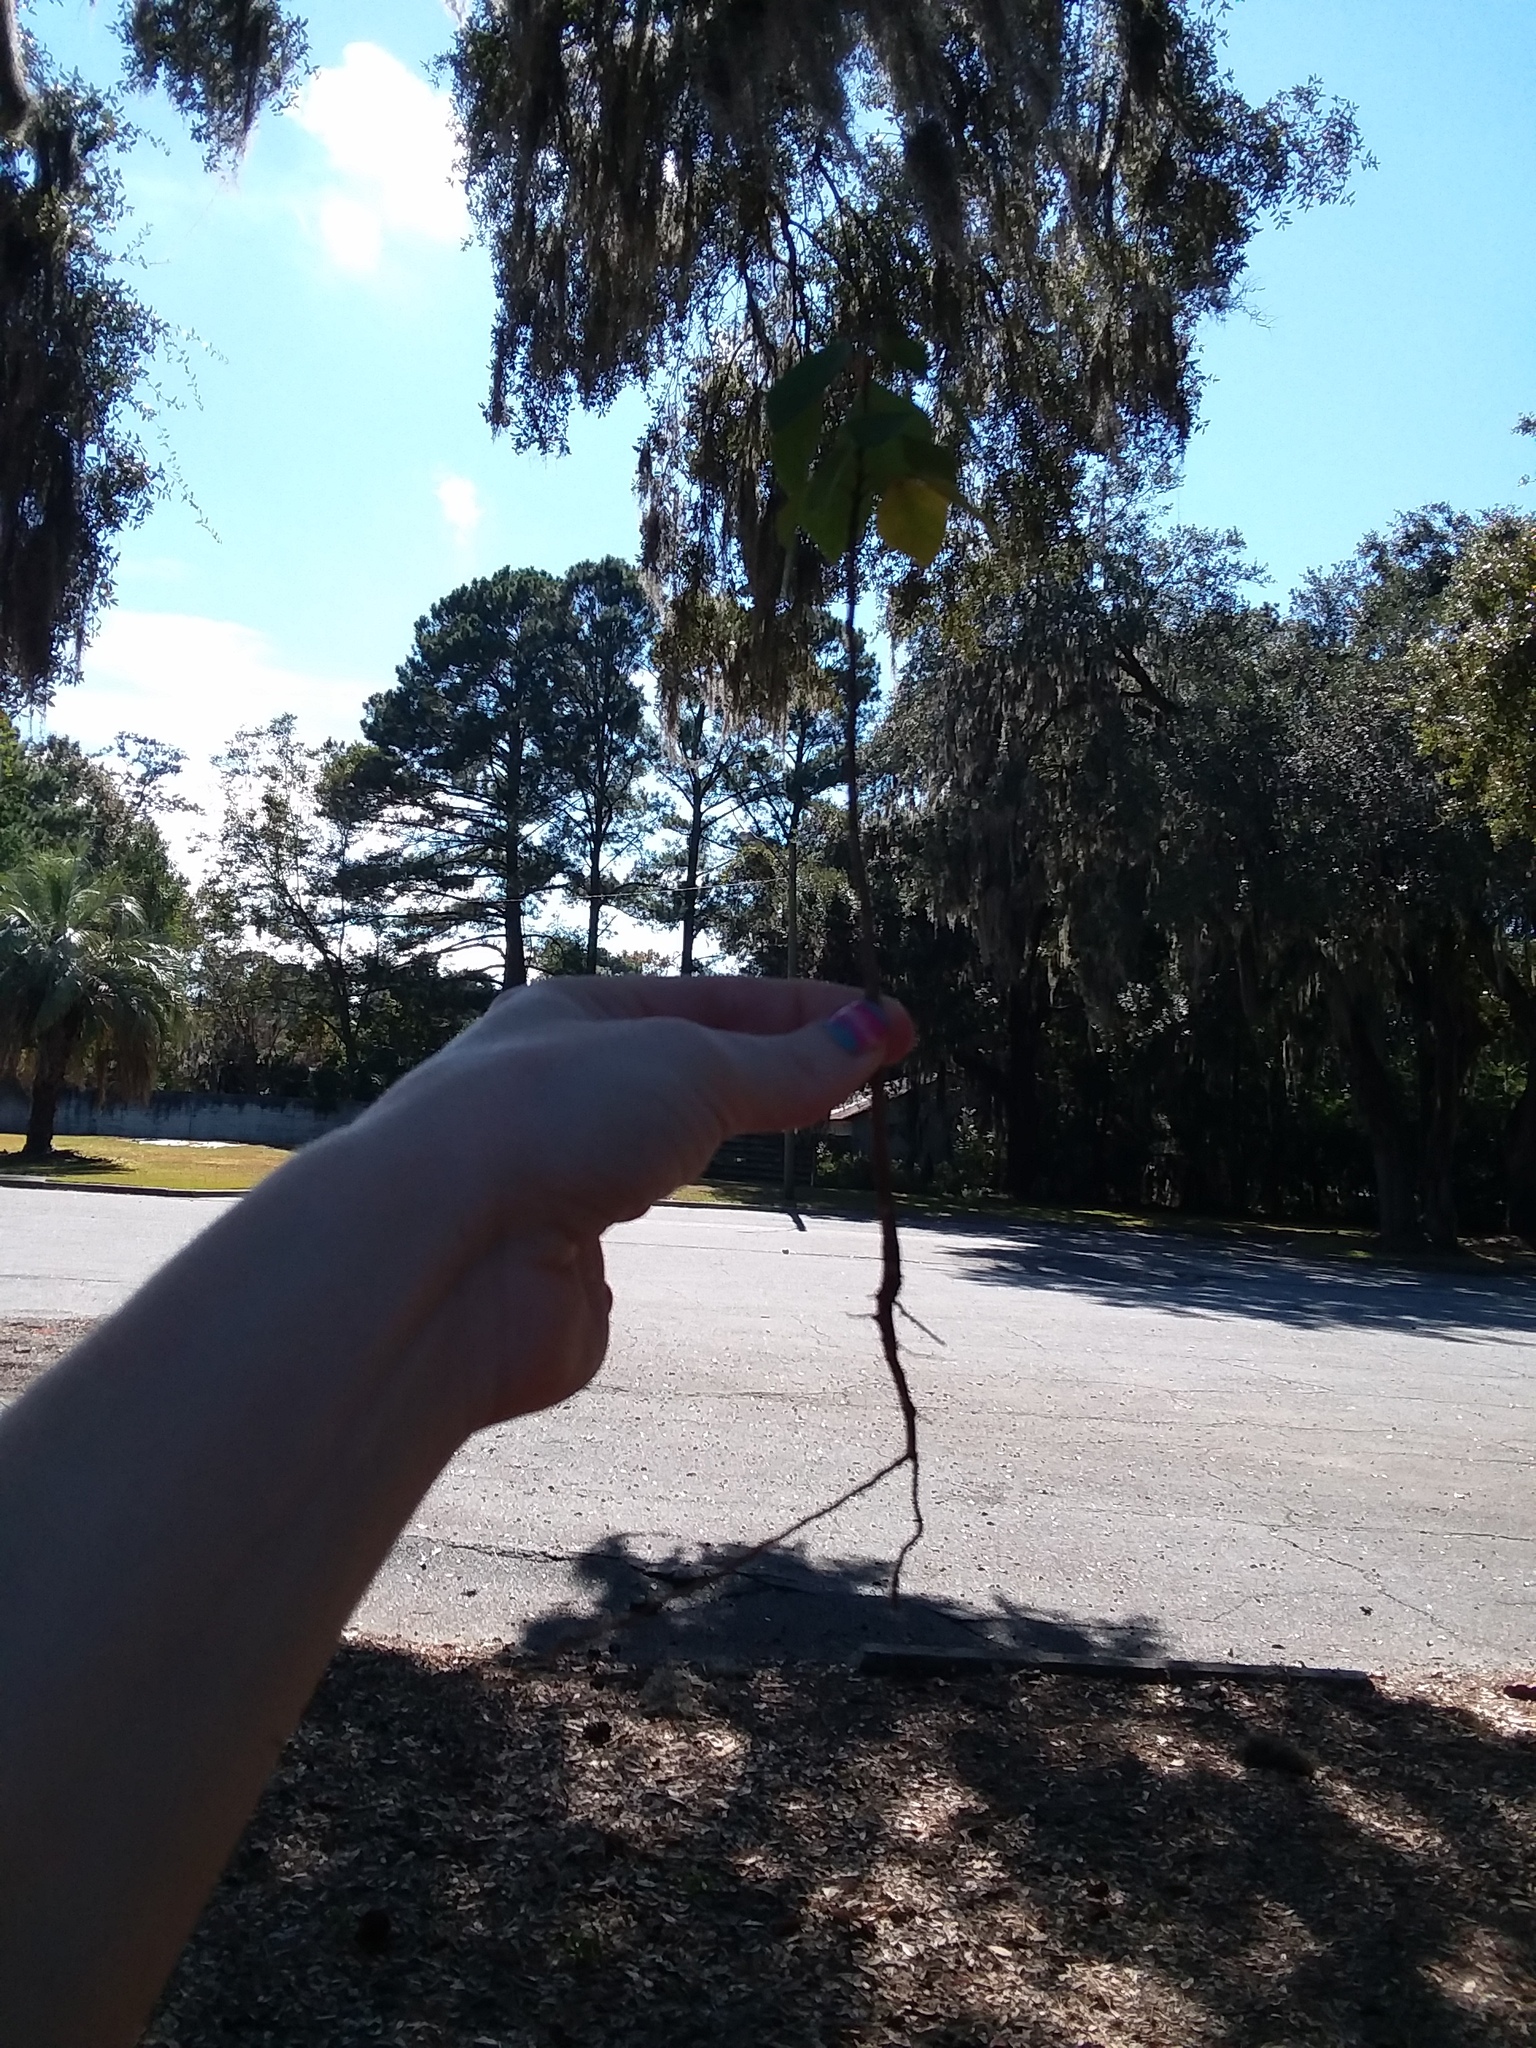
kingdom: Plantae
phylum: Tracheophyta
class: Magnoliopsida
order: Malpighiales
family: Euphorbiaceae
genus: Triadica
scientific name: Triadica sebifera
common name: Chinese tallow
